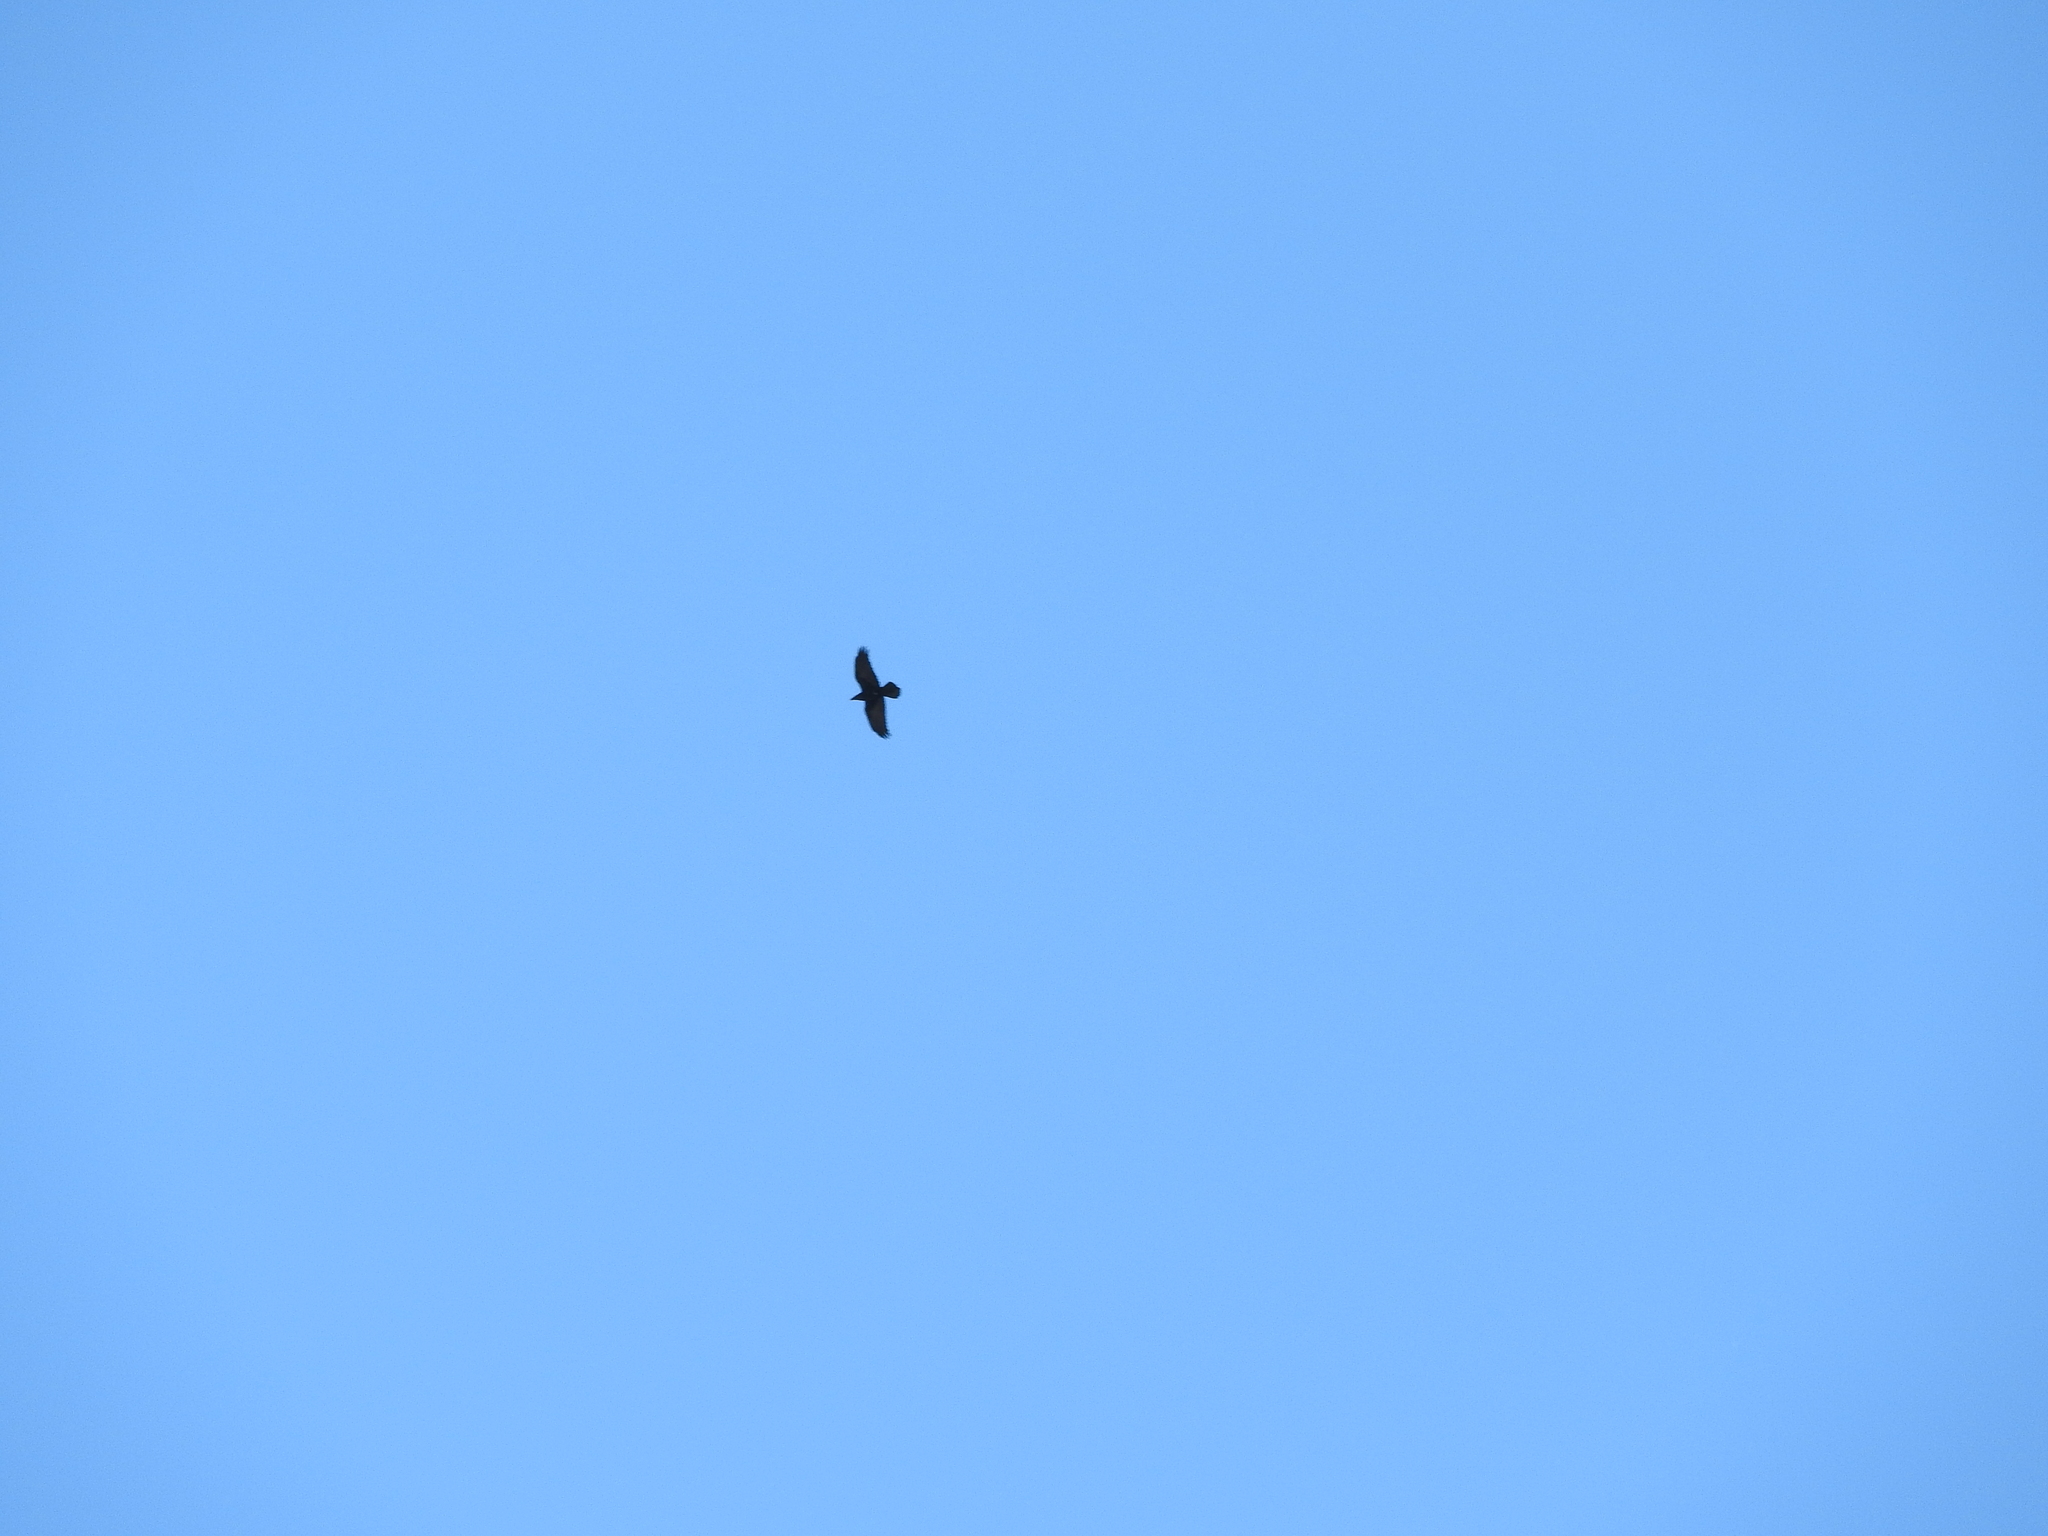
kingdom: Animalia
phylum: Chordata
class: Aves
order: Passeriformes
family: Corvidae
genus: Corvus
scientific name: Corvus corax
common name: Common raven
